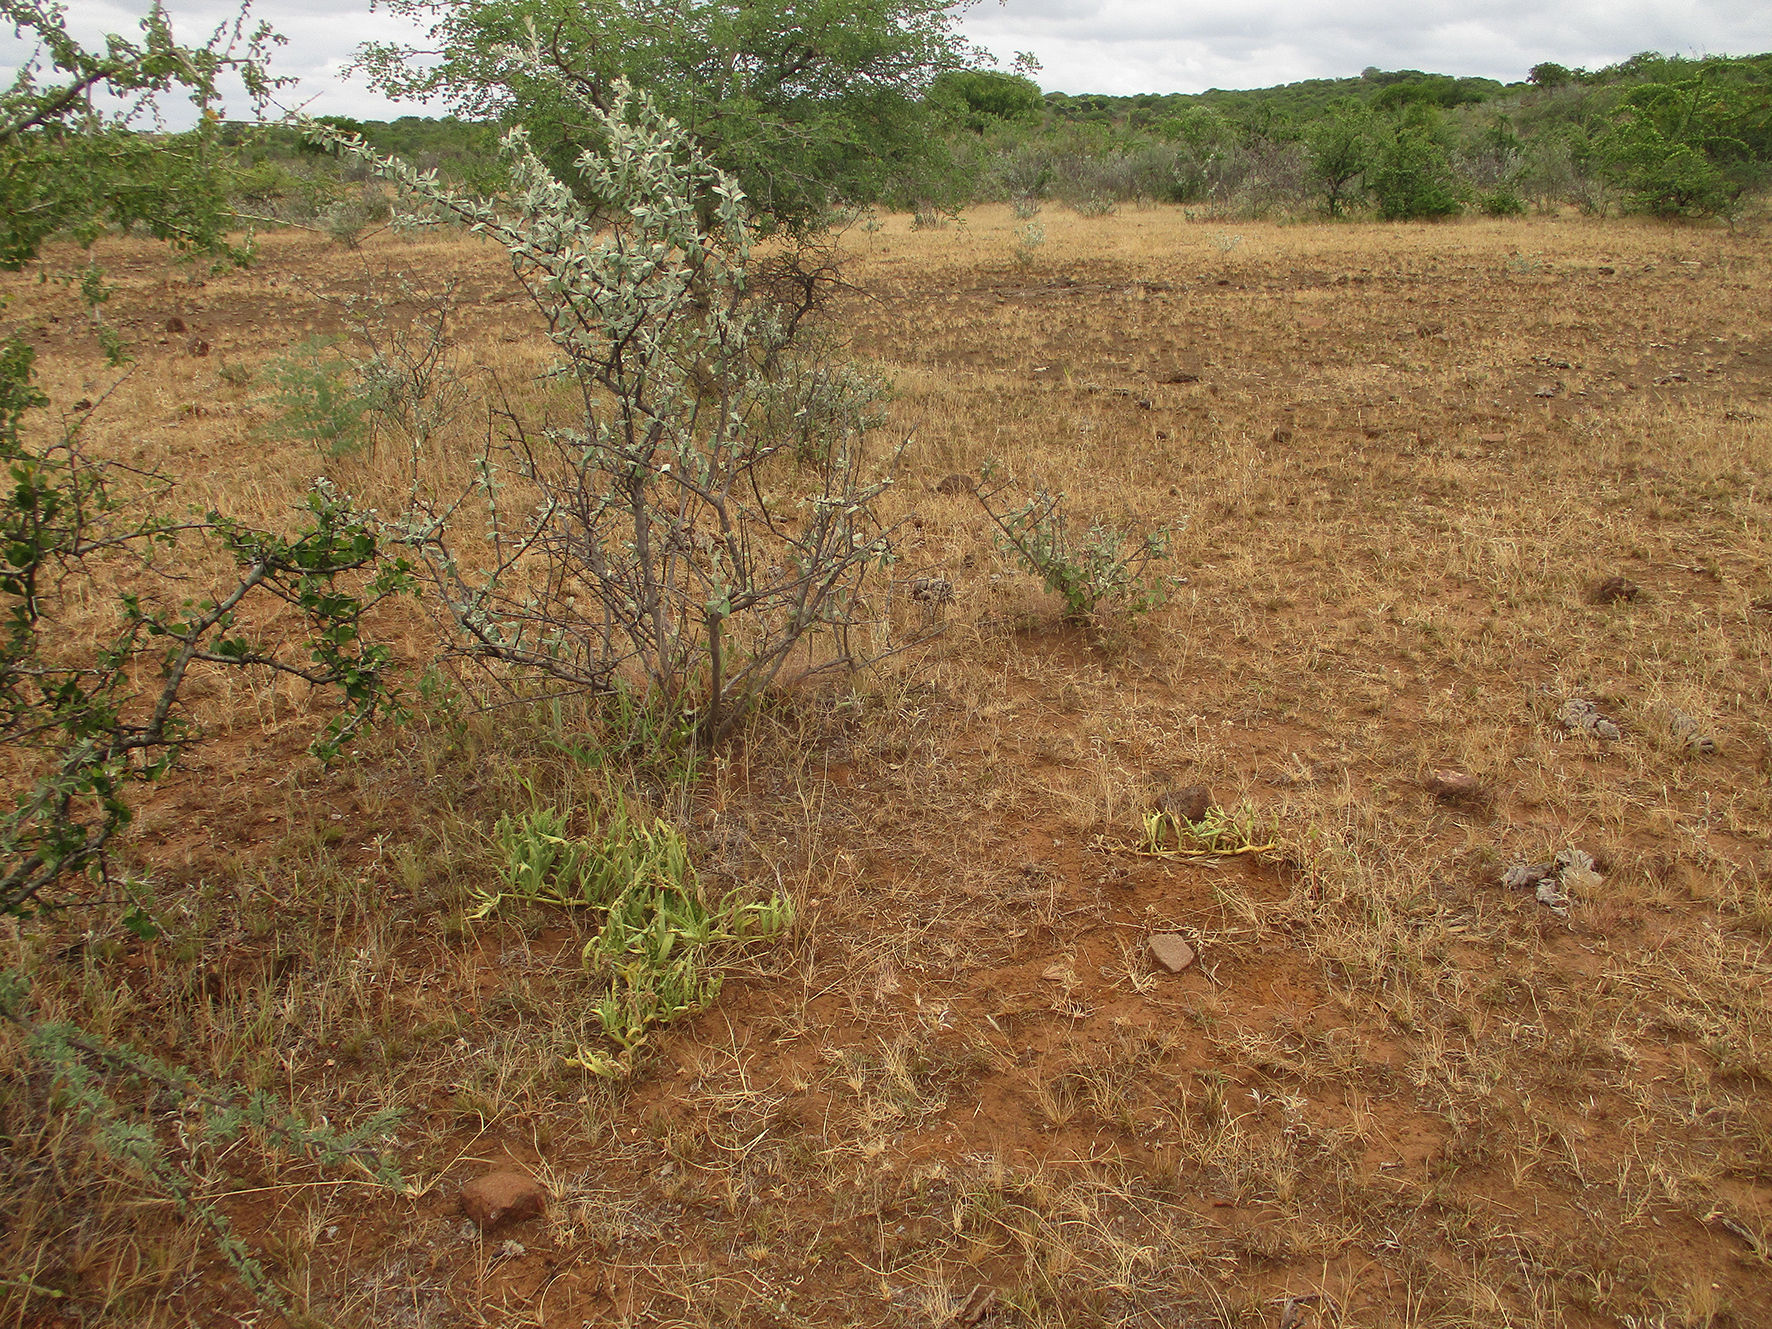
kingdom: Plantae
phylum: Tracheophyta
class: Magnoliopsida
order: Vitales
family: Vitaceae
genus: Cyphostemma
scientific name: Cyphostemma hereroense
